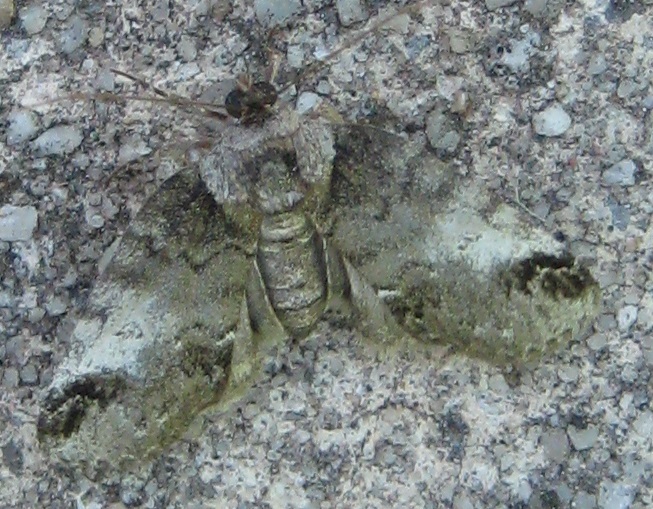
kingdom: Animalia
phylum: Arthropoda
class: Insecta
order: Lepidoptera
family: Nolidae
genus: Baileya
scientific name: Baileya dormitans
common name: Sleeping baileya moth
